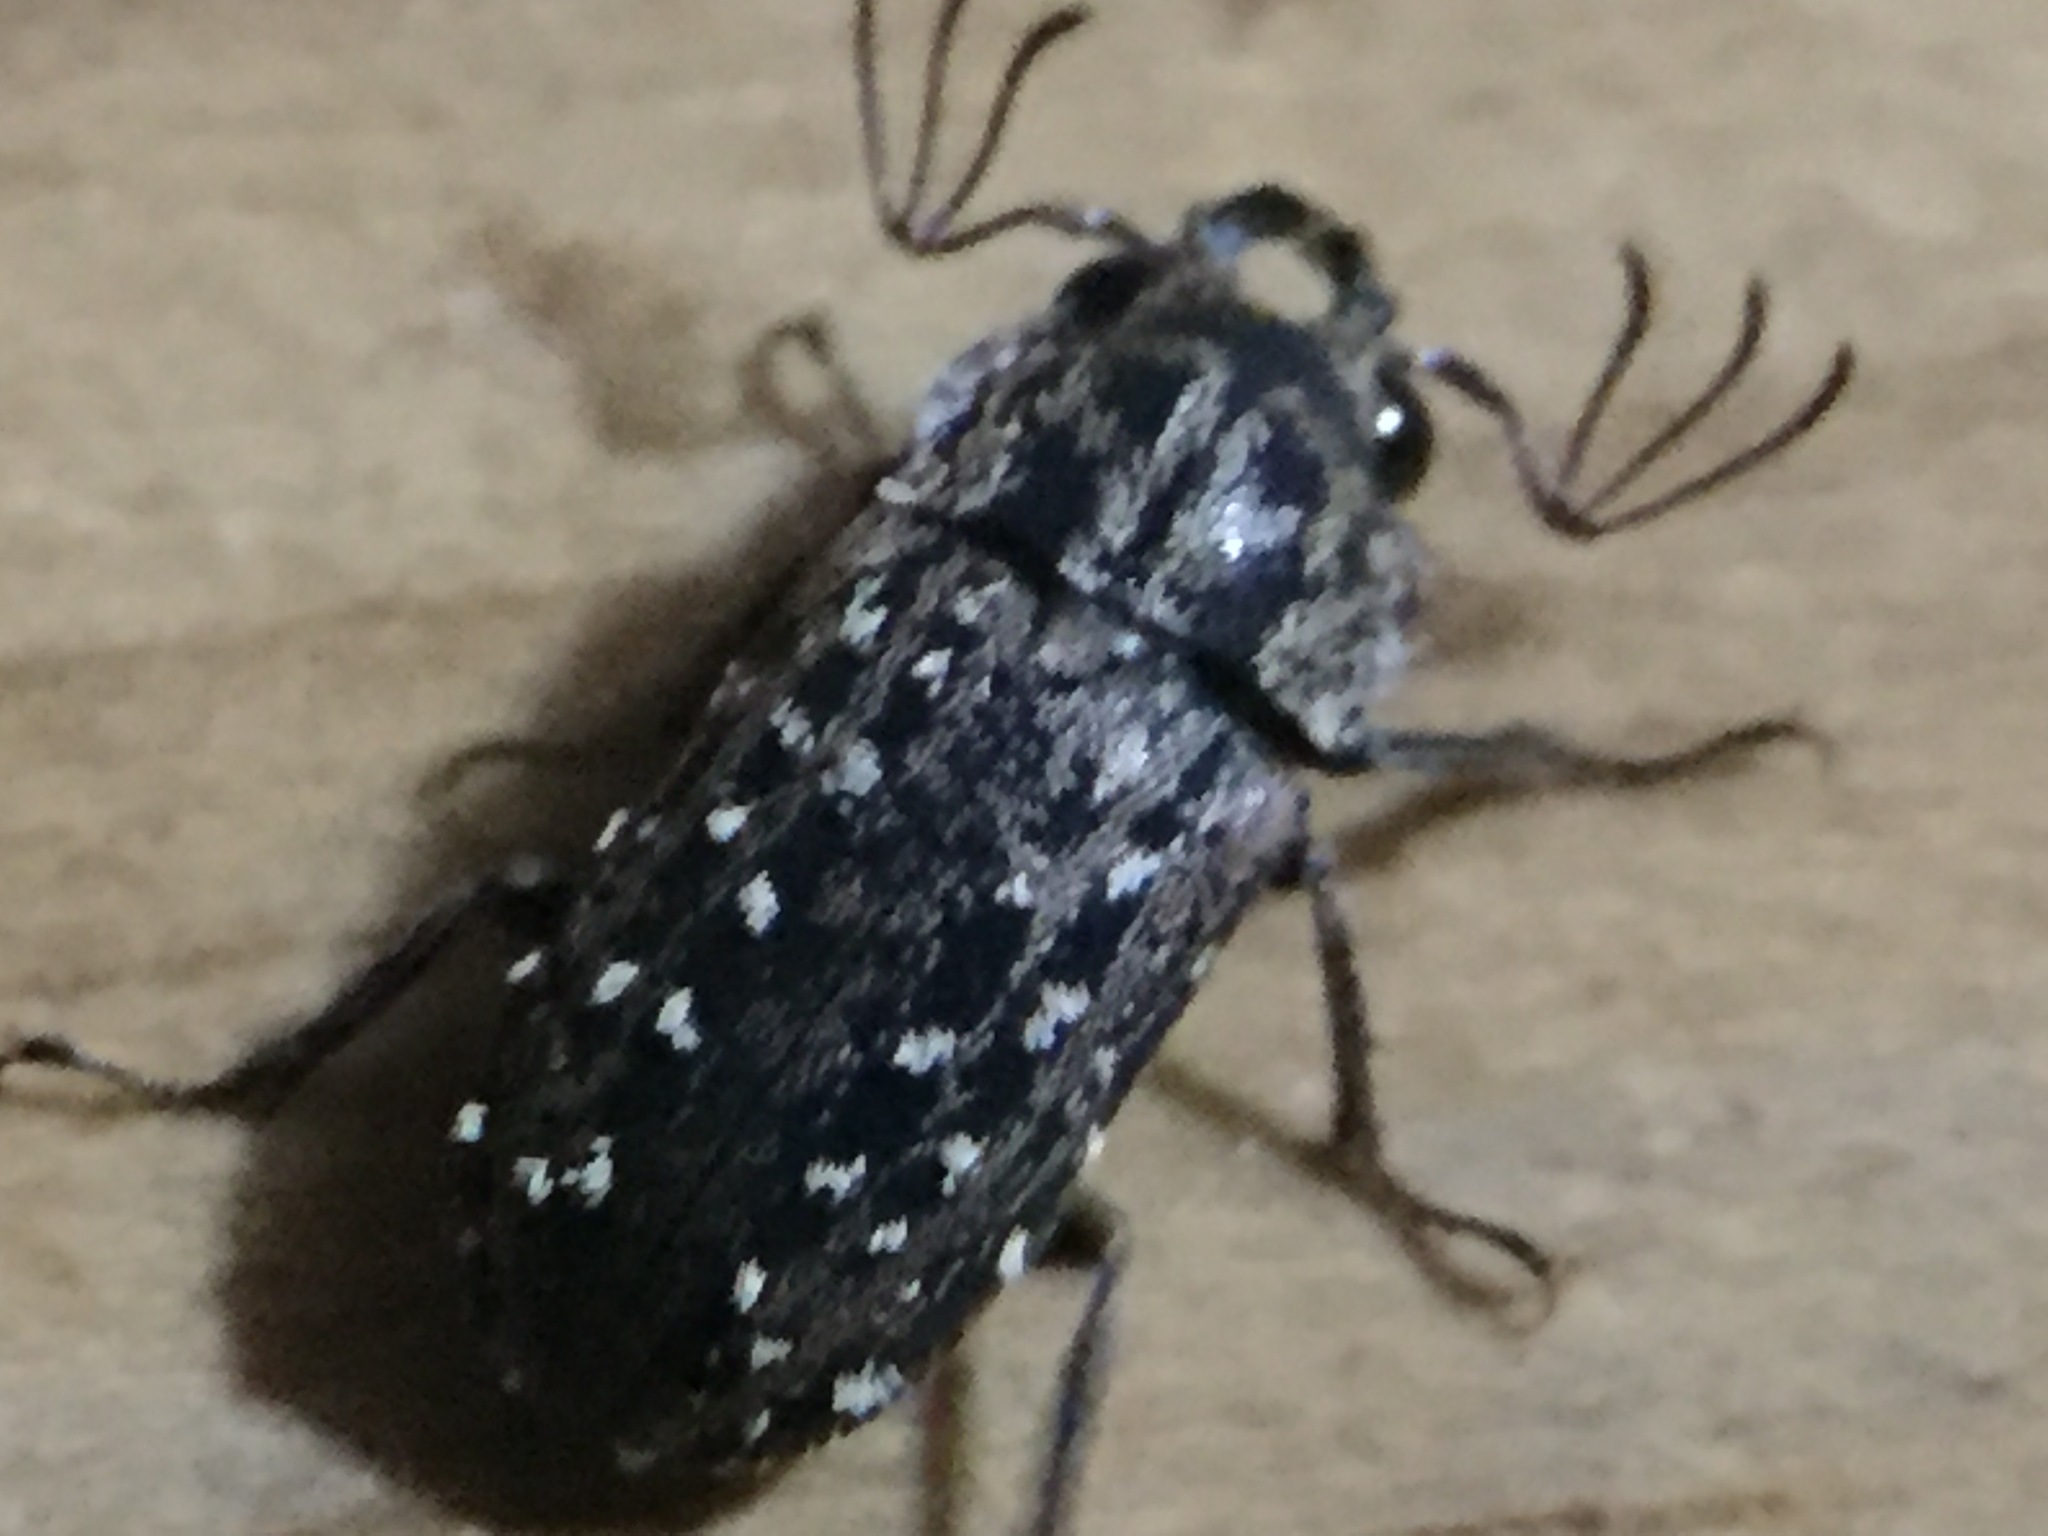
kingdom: Animalia
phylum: Arthropoda
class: Insecta
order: Coleoptera
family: Lucanidae
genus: Mitophyllus
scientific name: Mitophyllus irroratus
